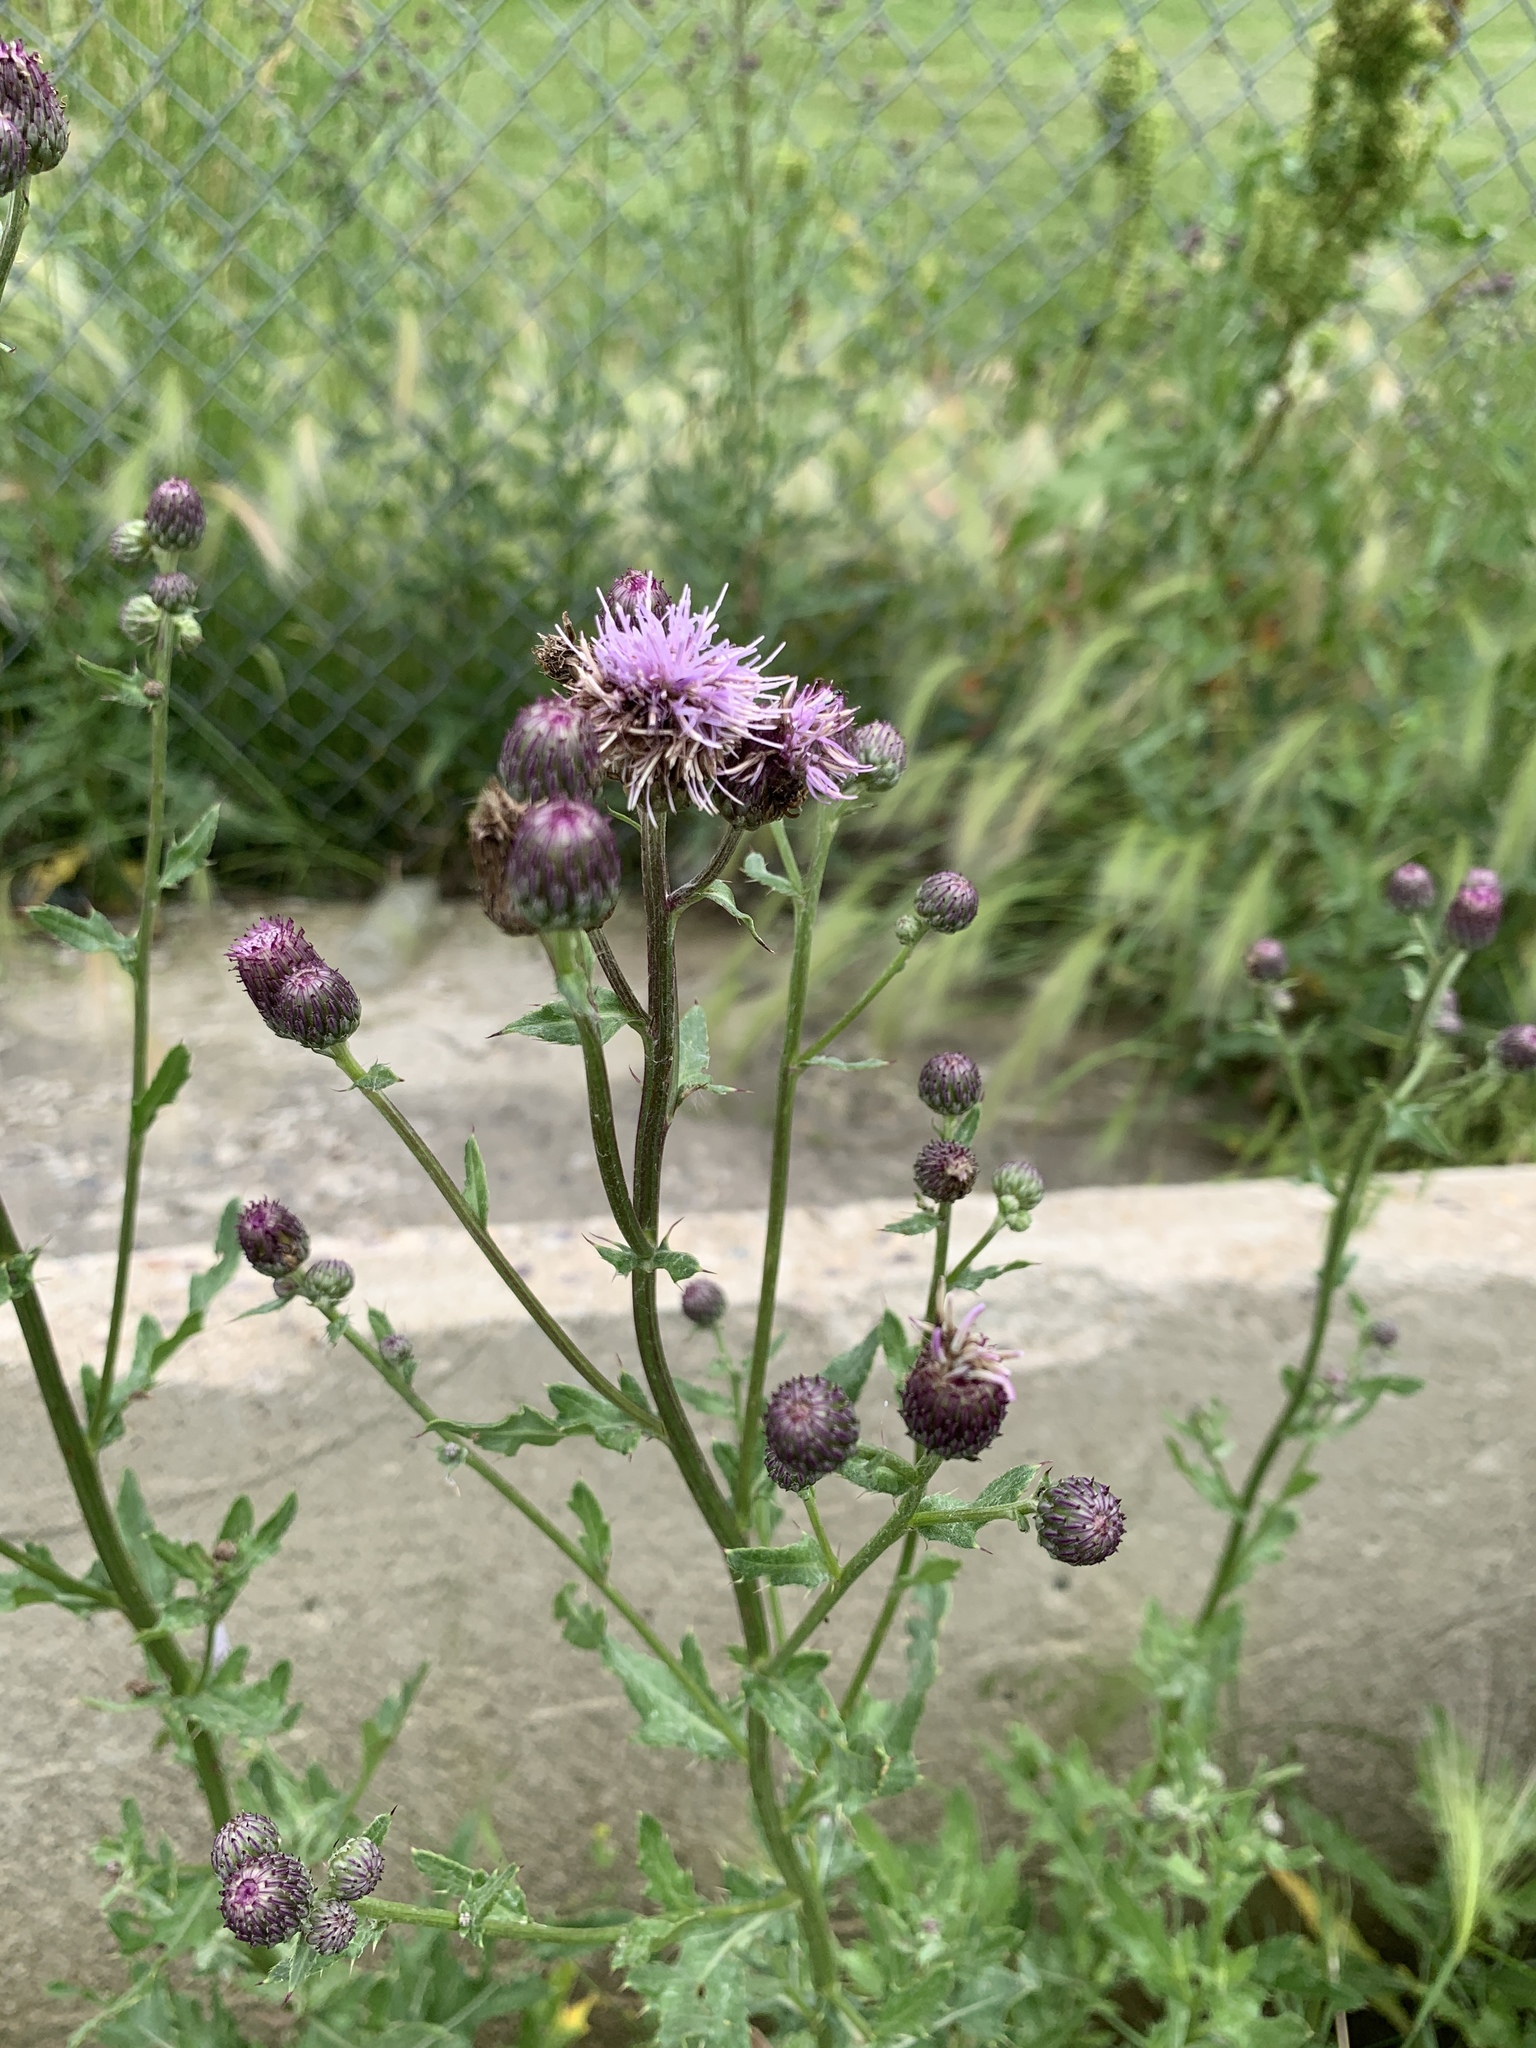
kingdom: Plantae
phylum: Tracheophyta
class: Magnoliopsida
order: Asterales
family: Asteraceae
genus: Cirsium
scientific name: Cirsium arvense
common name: Creeping thistle
